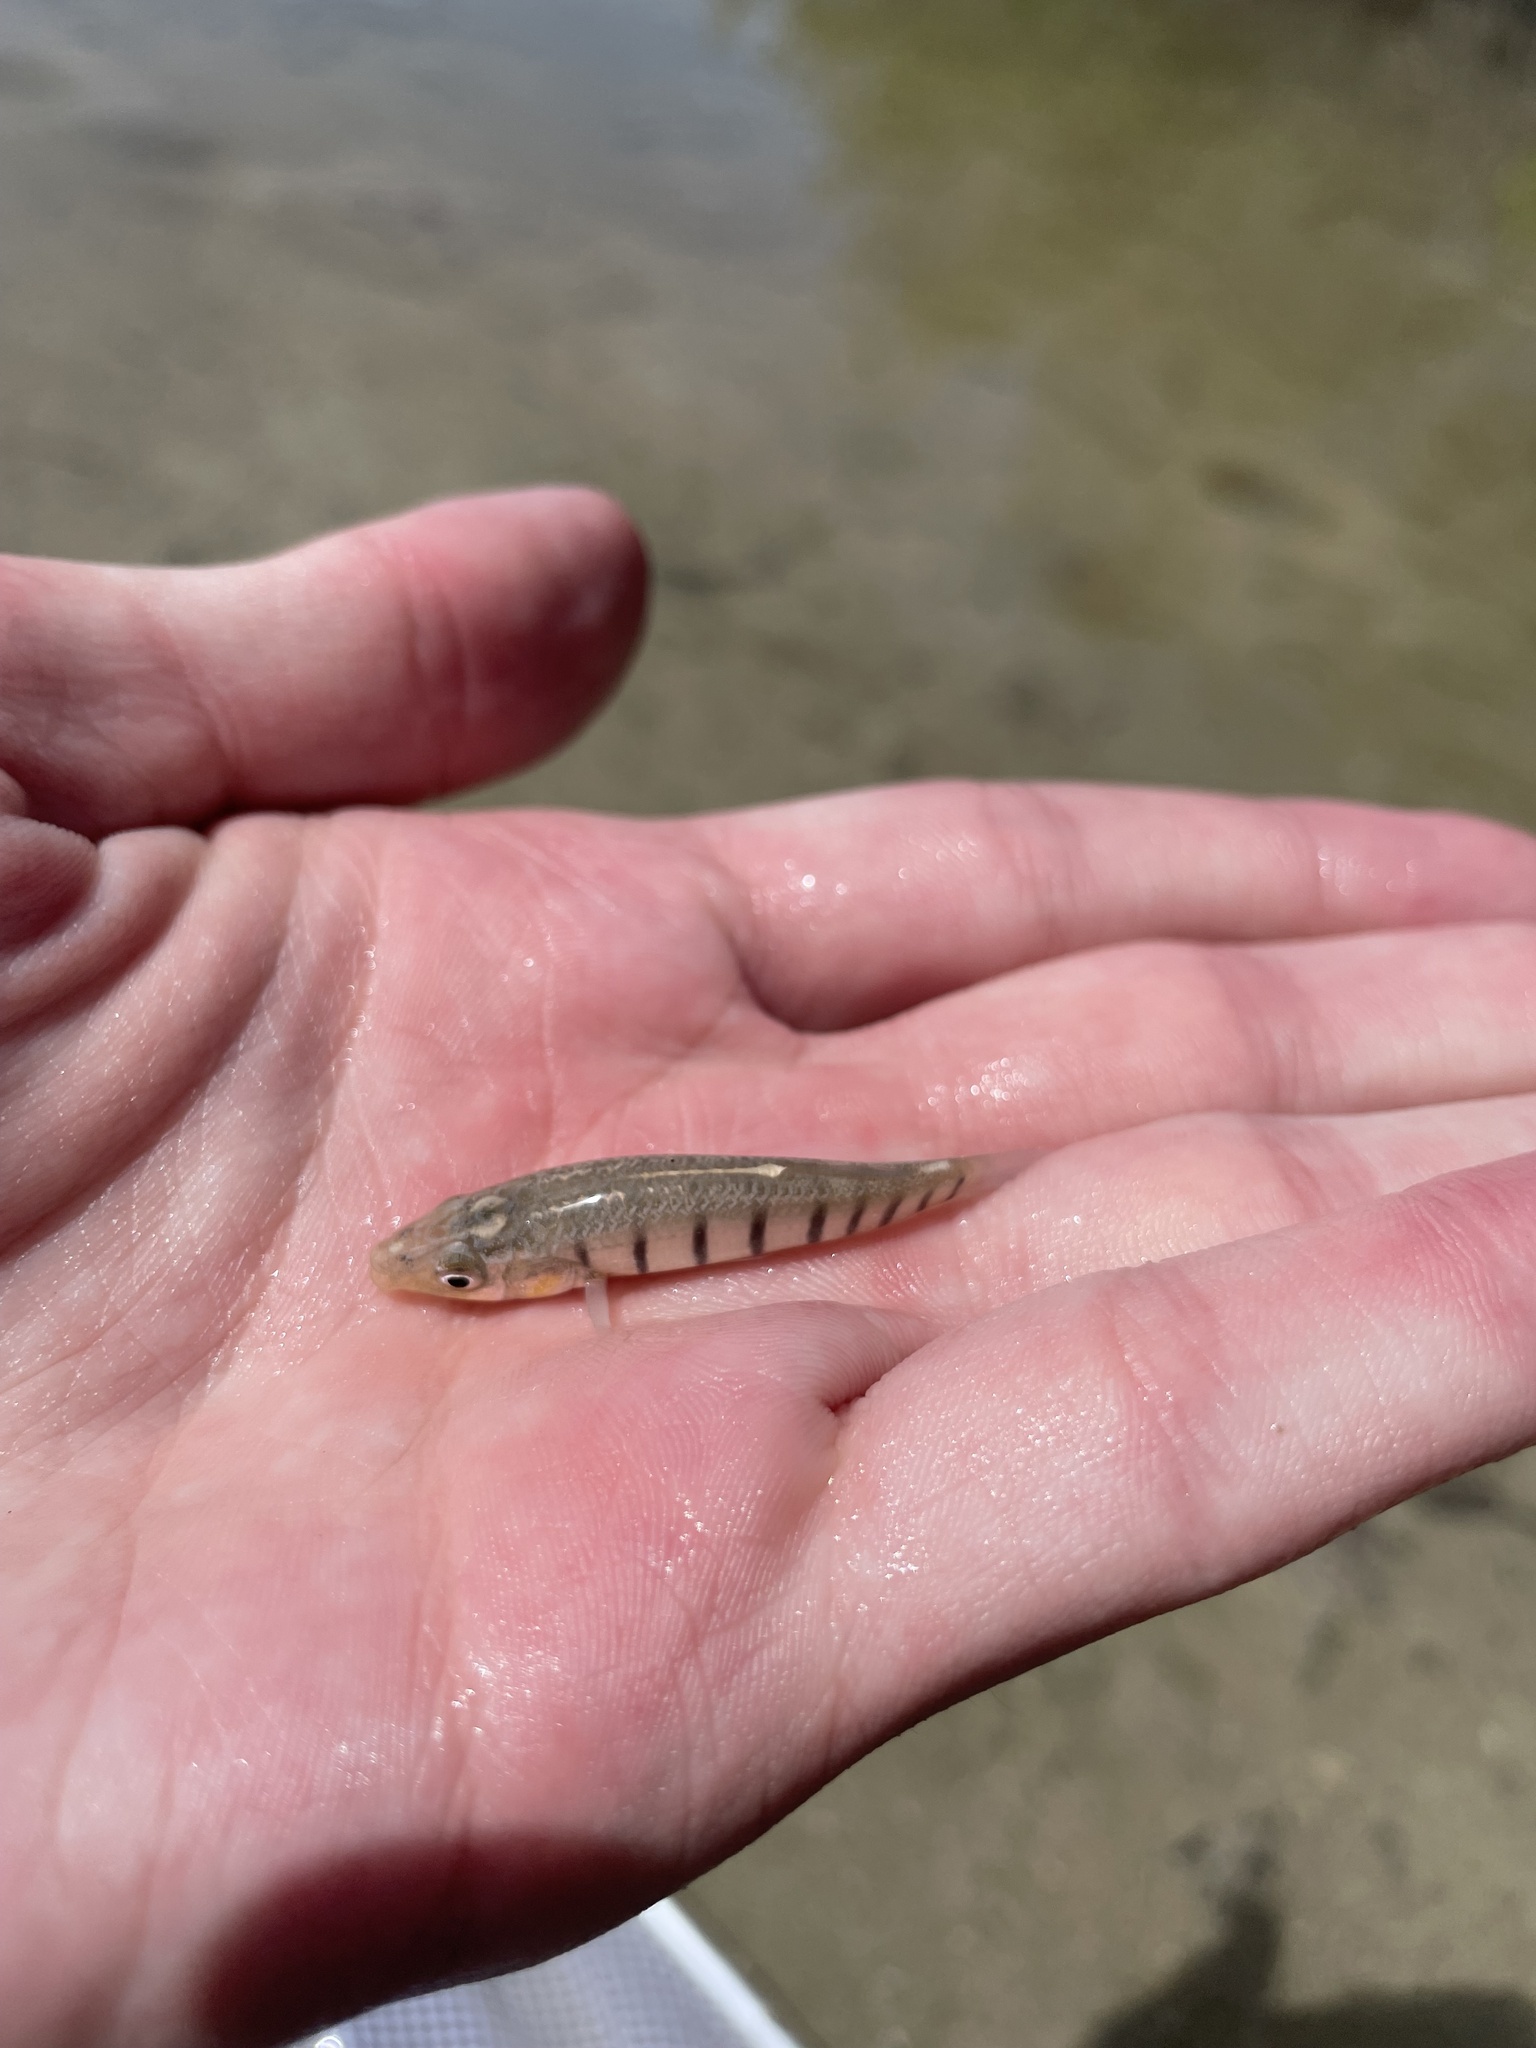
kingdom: Animalia
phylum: Chordata
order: Cyprinodontiformes
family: Fundulidae
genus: Fundulus
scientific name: Fundulus similis
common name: Longnose killifish
